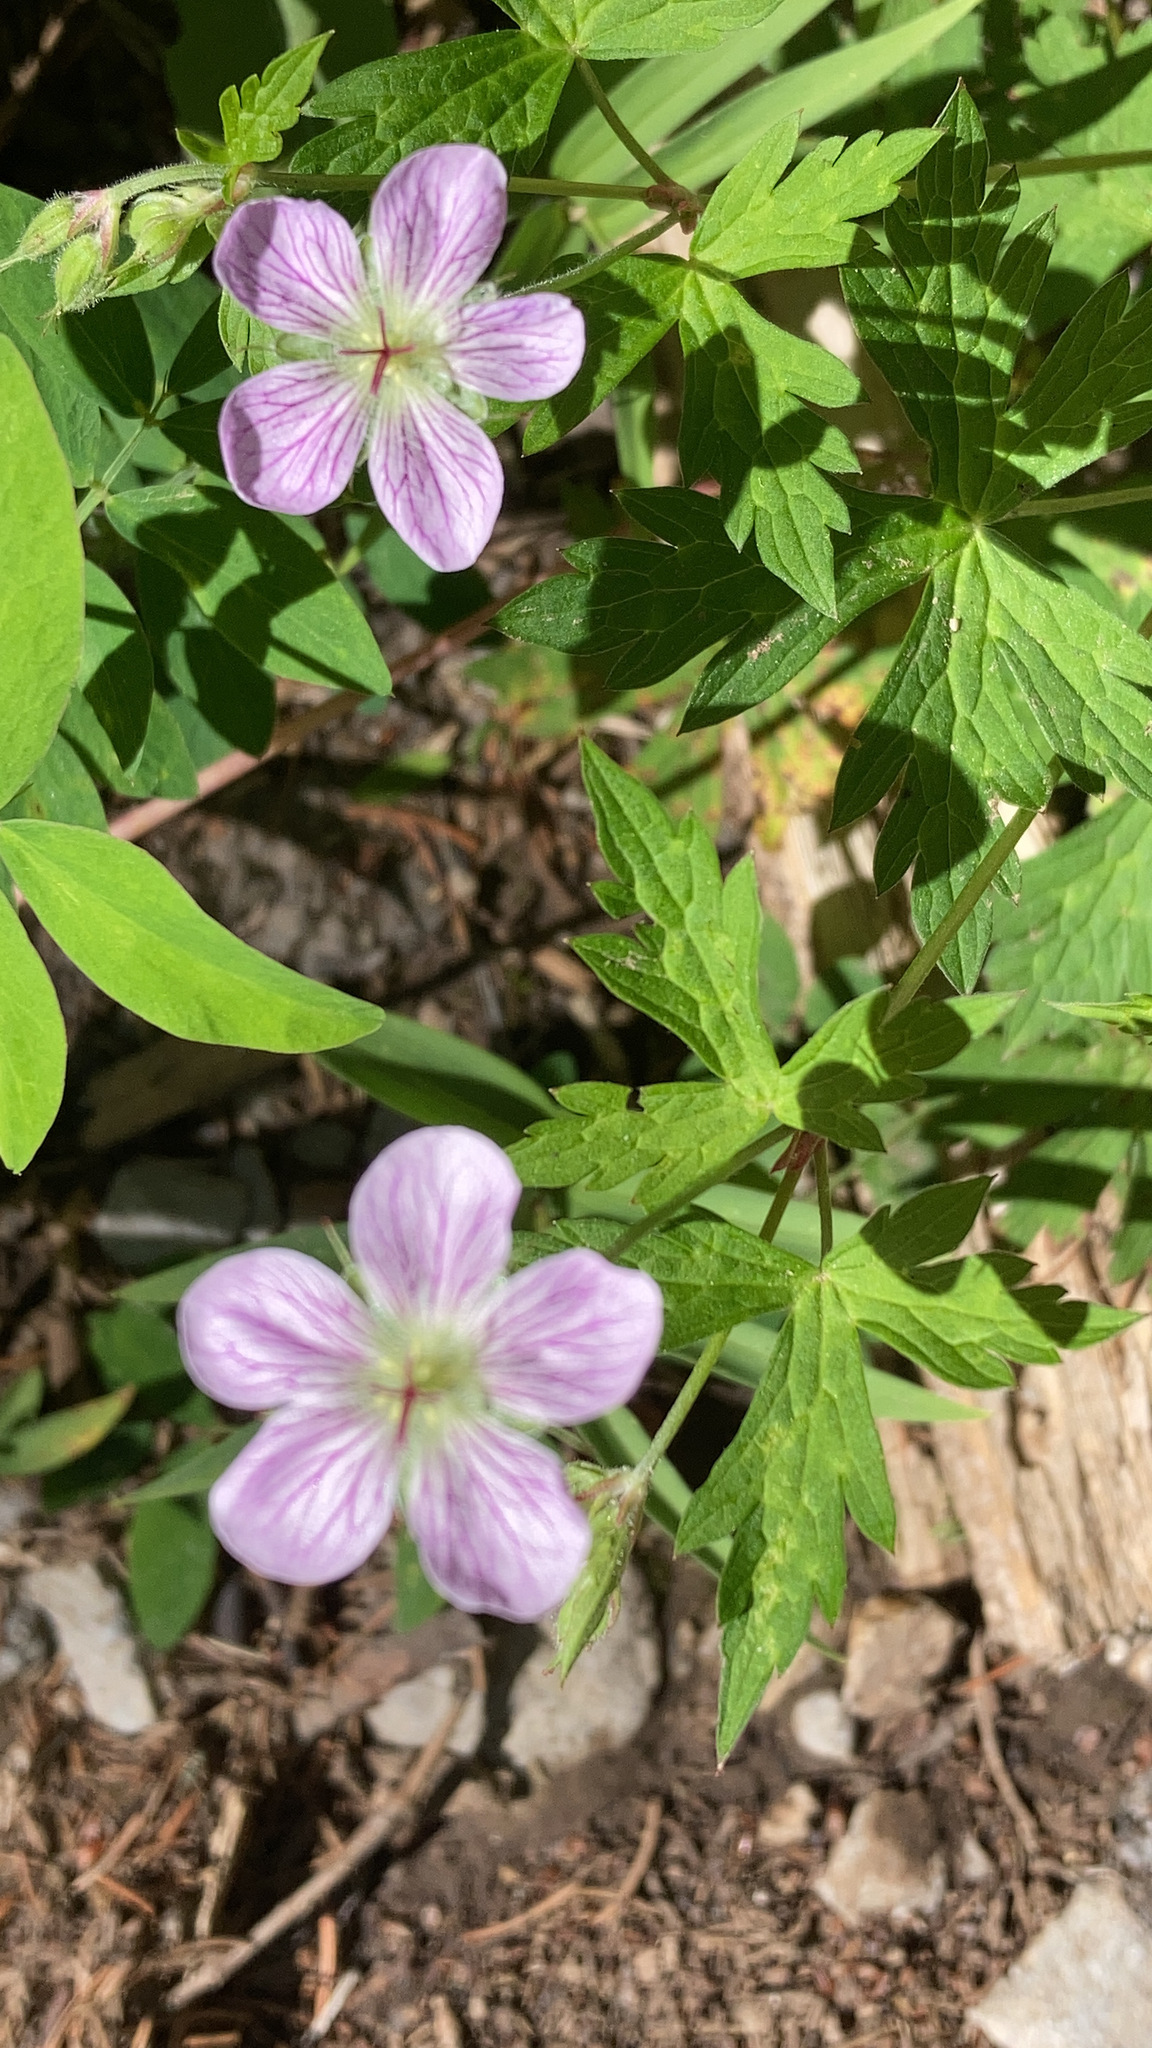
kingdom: Plantae
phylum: Tracheophyta
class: Magnoliopsida
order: Geraniales
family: Geraniaceae
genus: Geranium
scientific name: Geranium richardsonii
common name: Richardson's crane's-bill
